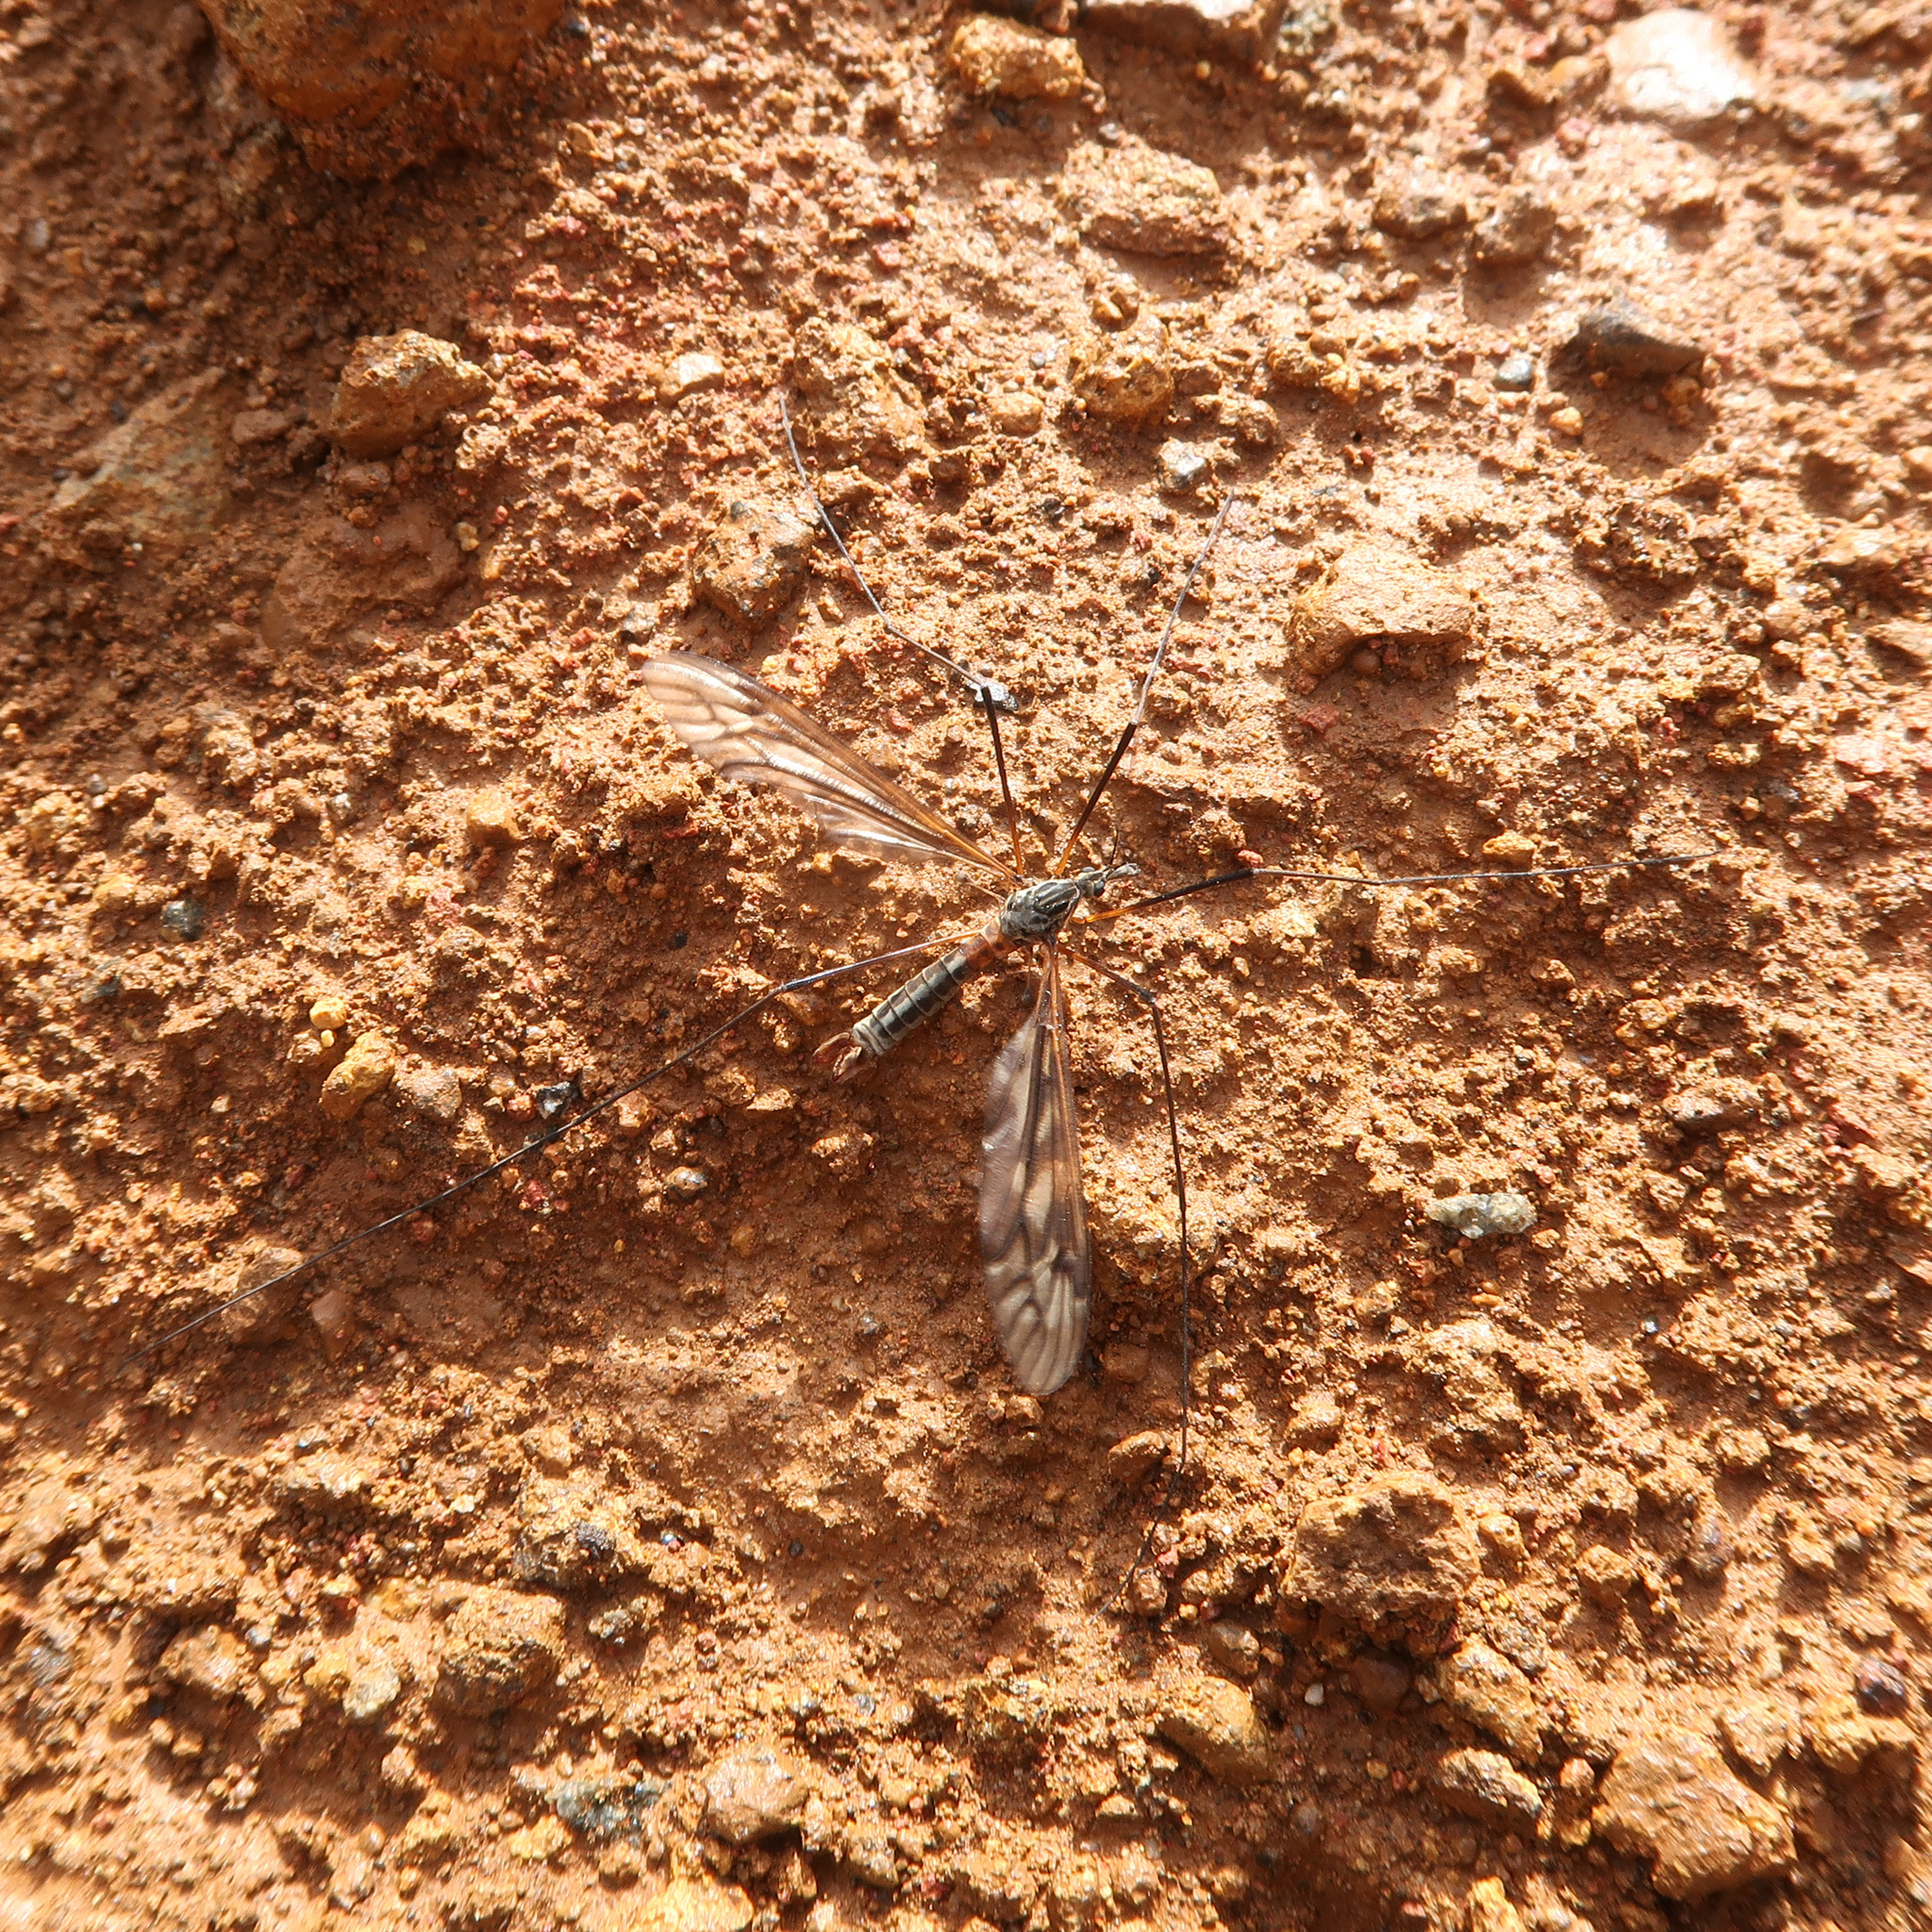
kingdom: Animalia
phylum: Arthropoda
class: Insecta
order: Diptera
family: Tipulidae
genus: Leptotarsus
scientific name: Leptotarsus tonnoiranus
